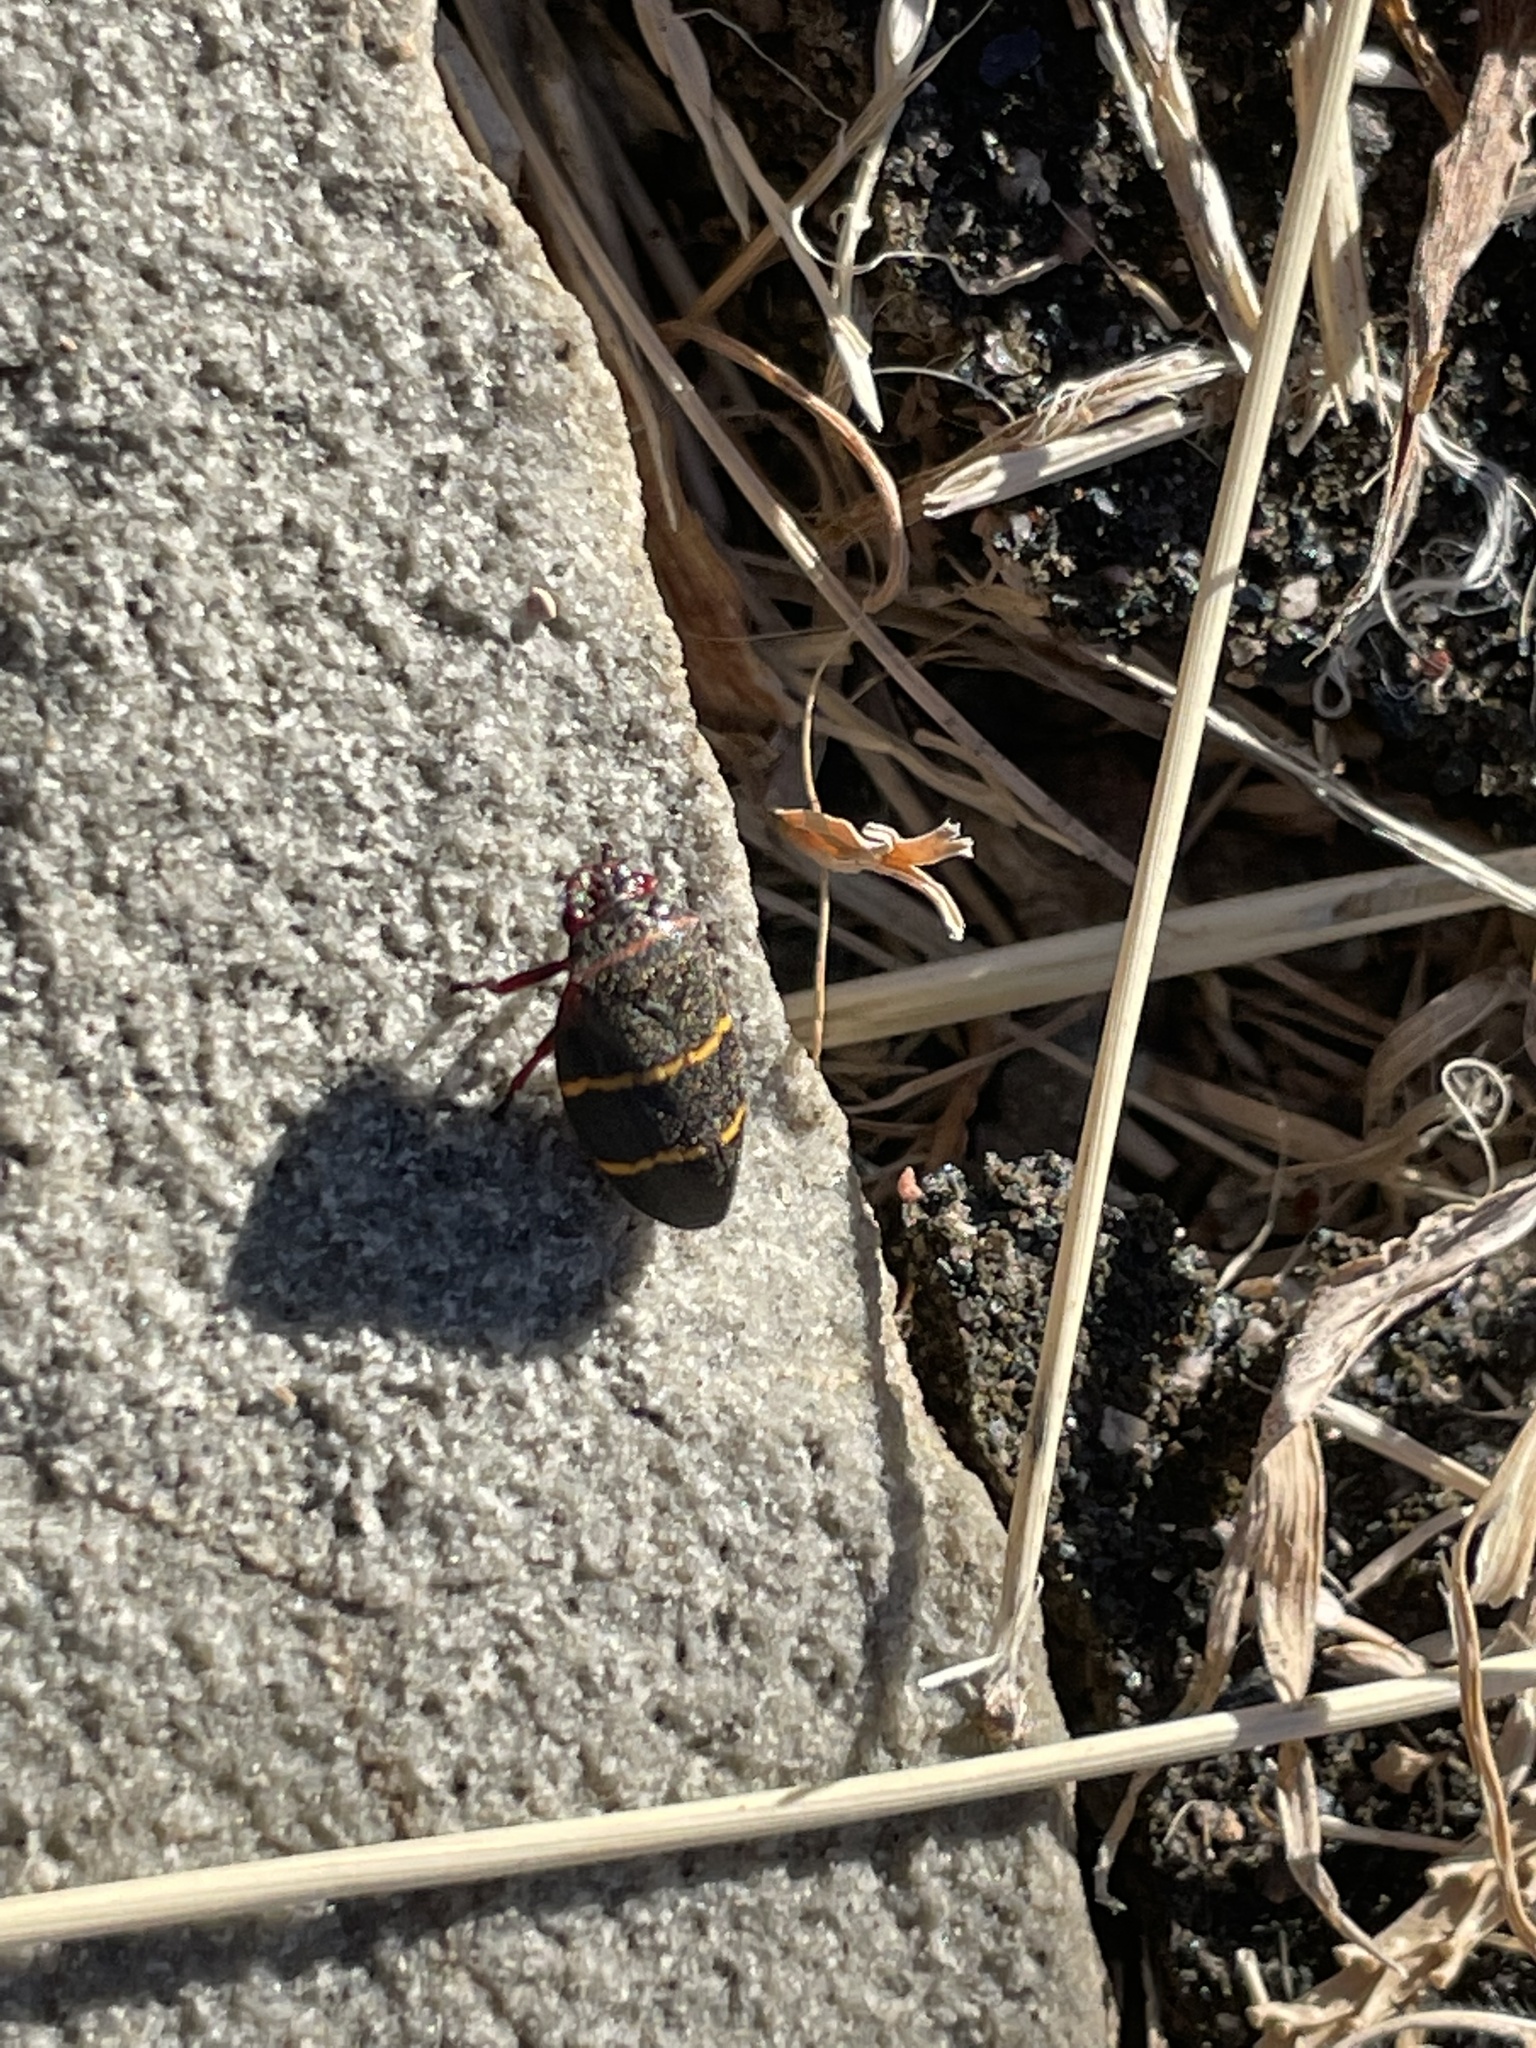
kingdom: Animalia
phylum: Arthropoda
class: Insecta
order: Hemiptera
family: Cercopidae
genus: Prosapia
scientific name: Prosapia bicincta
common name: Twolined spittlebug
